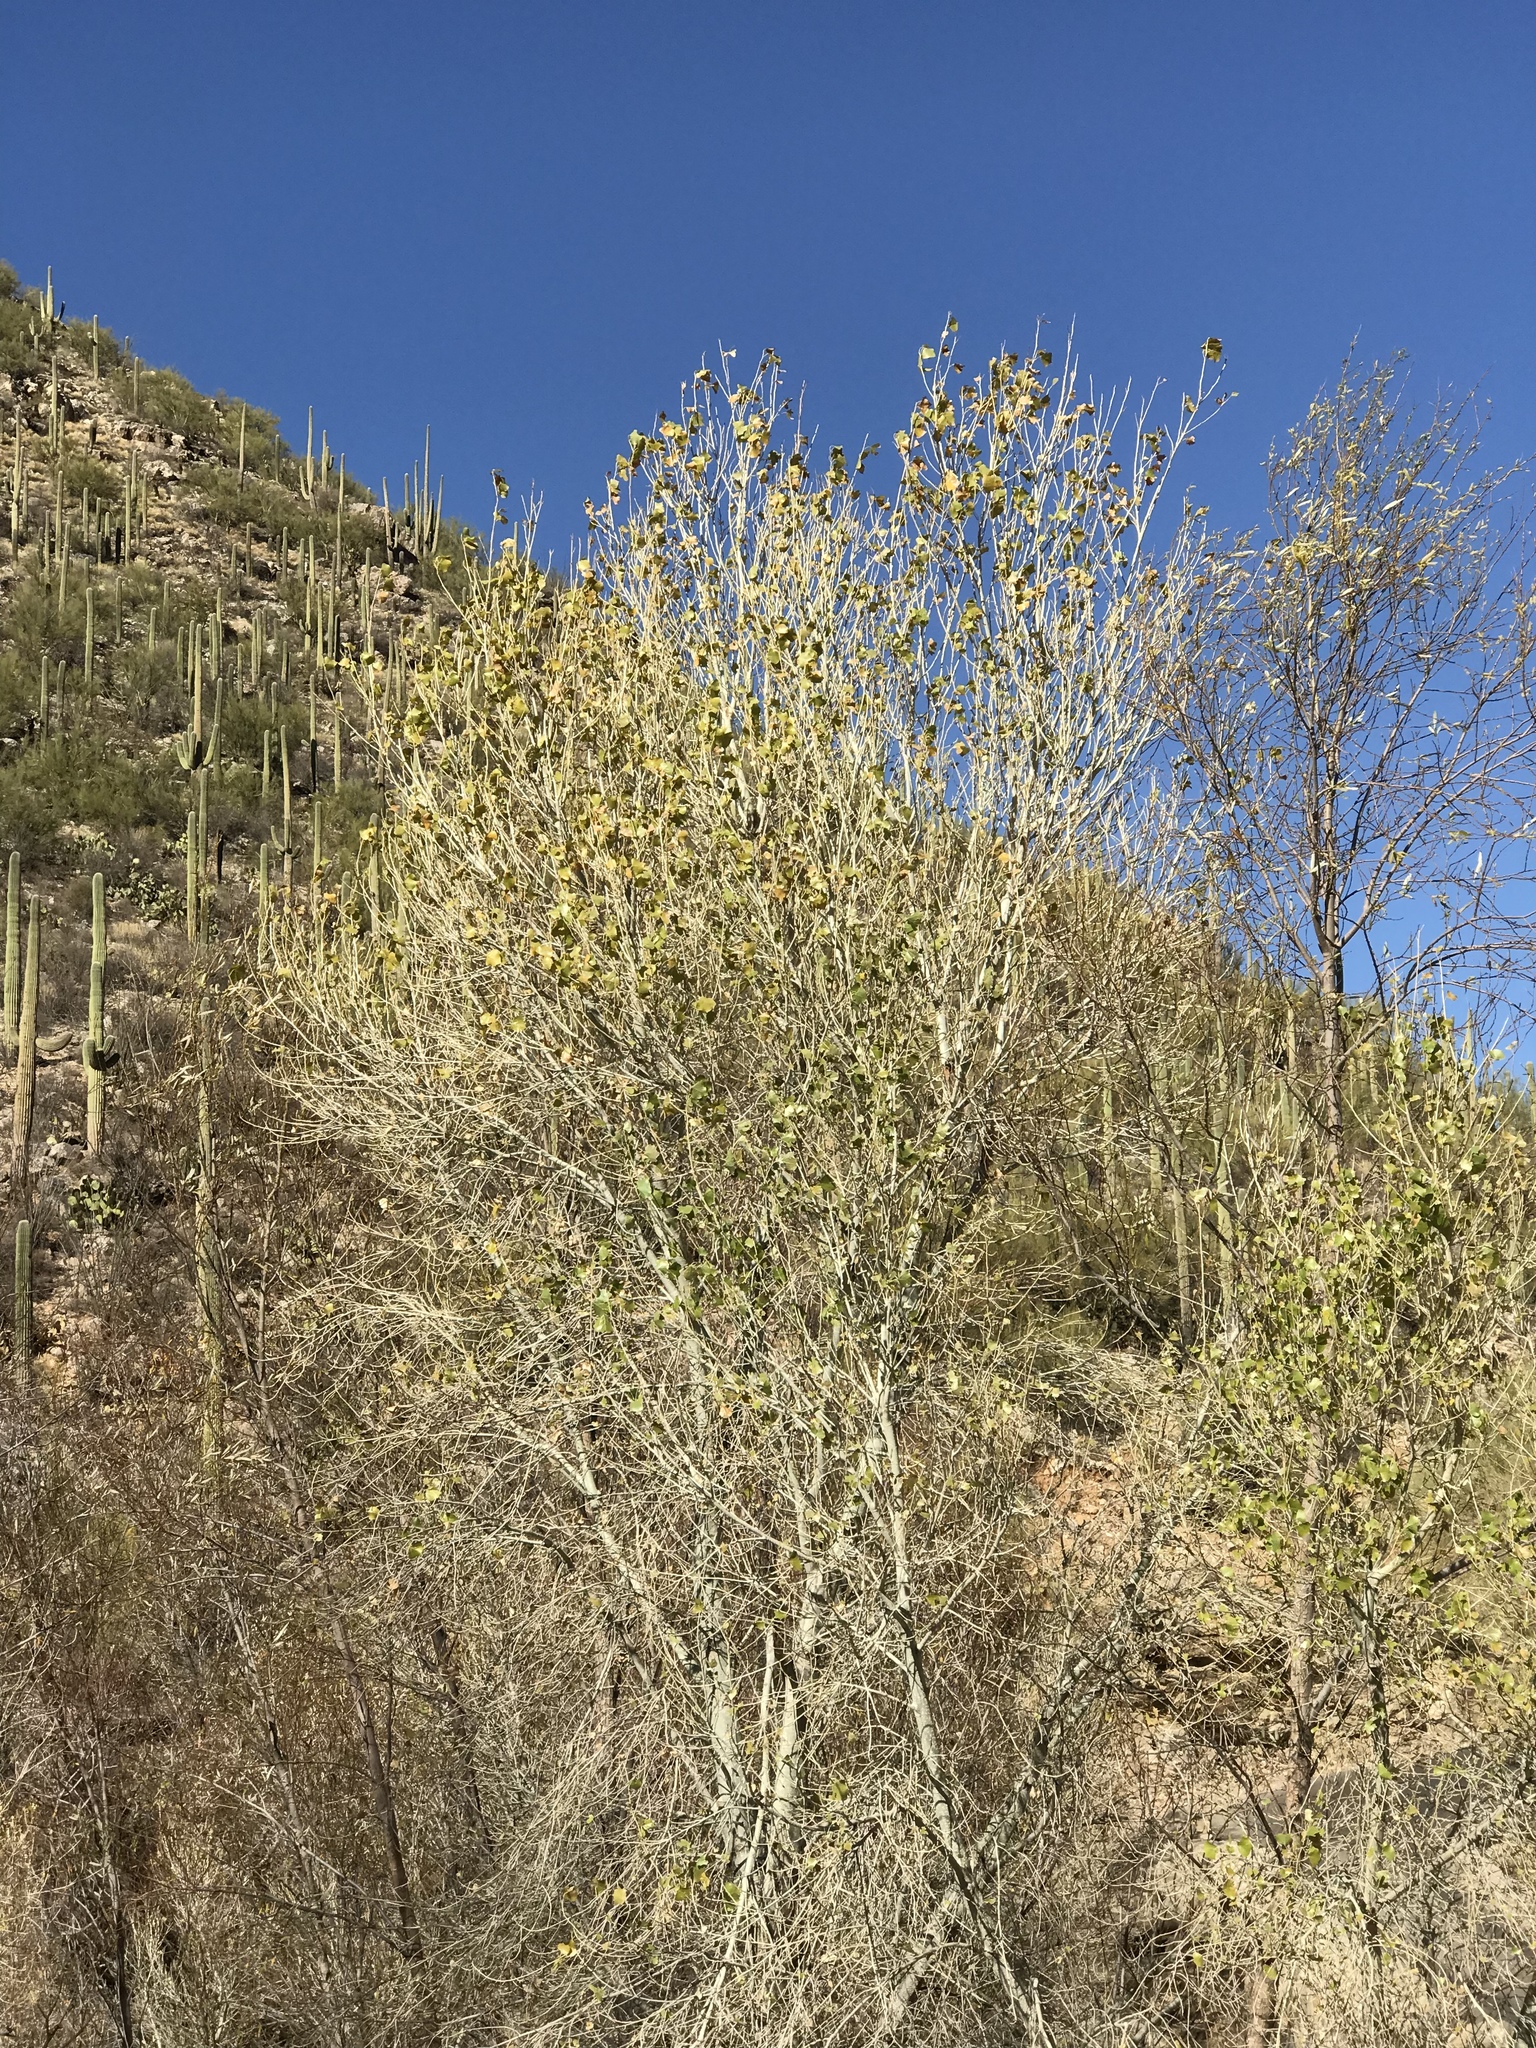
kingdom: Plantae
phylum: Tracheophyta
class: Magnoliopsida
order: Malpighiales
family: Salicaceae
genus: Populus
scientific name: Populus fremontii
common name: Fremont's cottonwood
